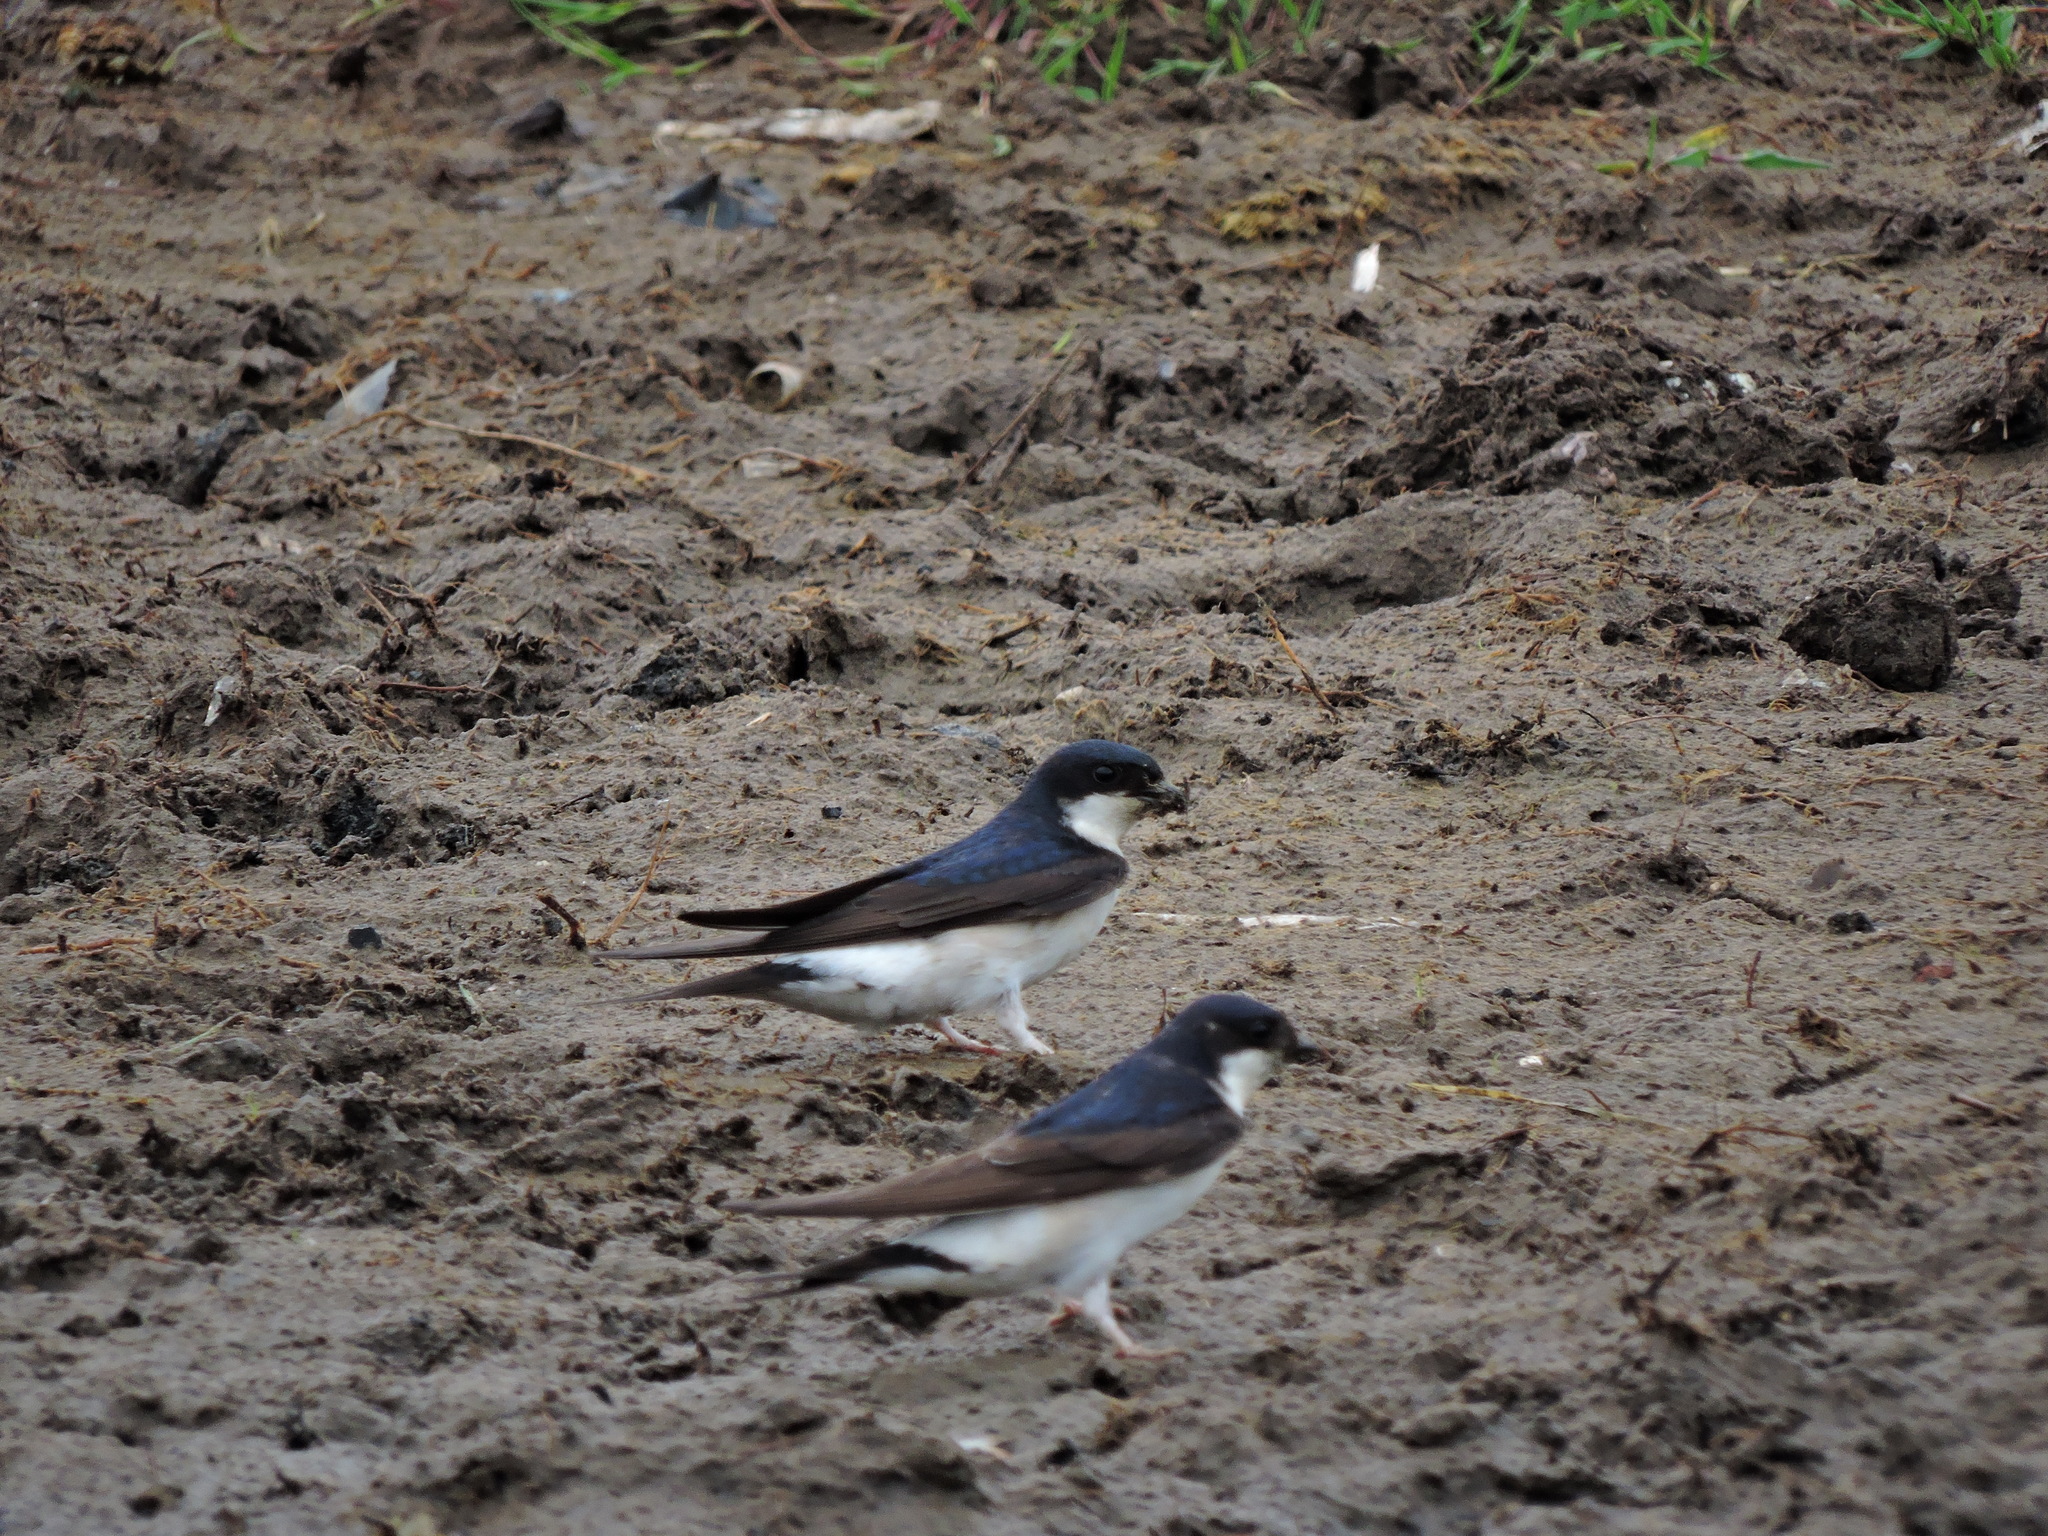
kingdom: Animalia
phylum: Chordata
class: Aves
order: Passeriformes
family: Hirundinidae
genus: Delichon
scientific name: Delichon urbicum
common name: Common house martin
